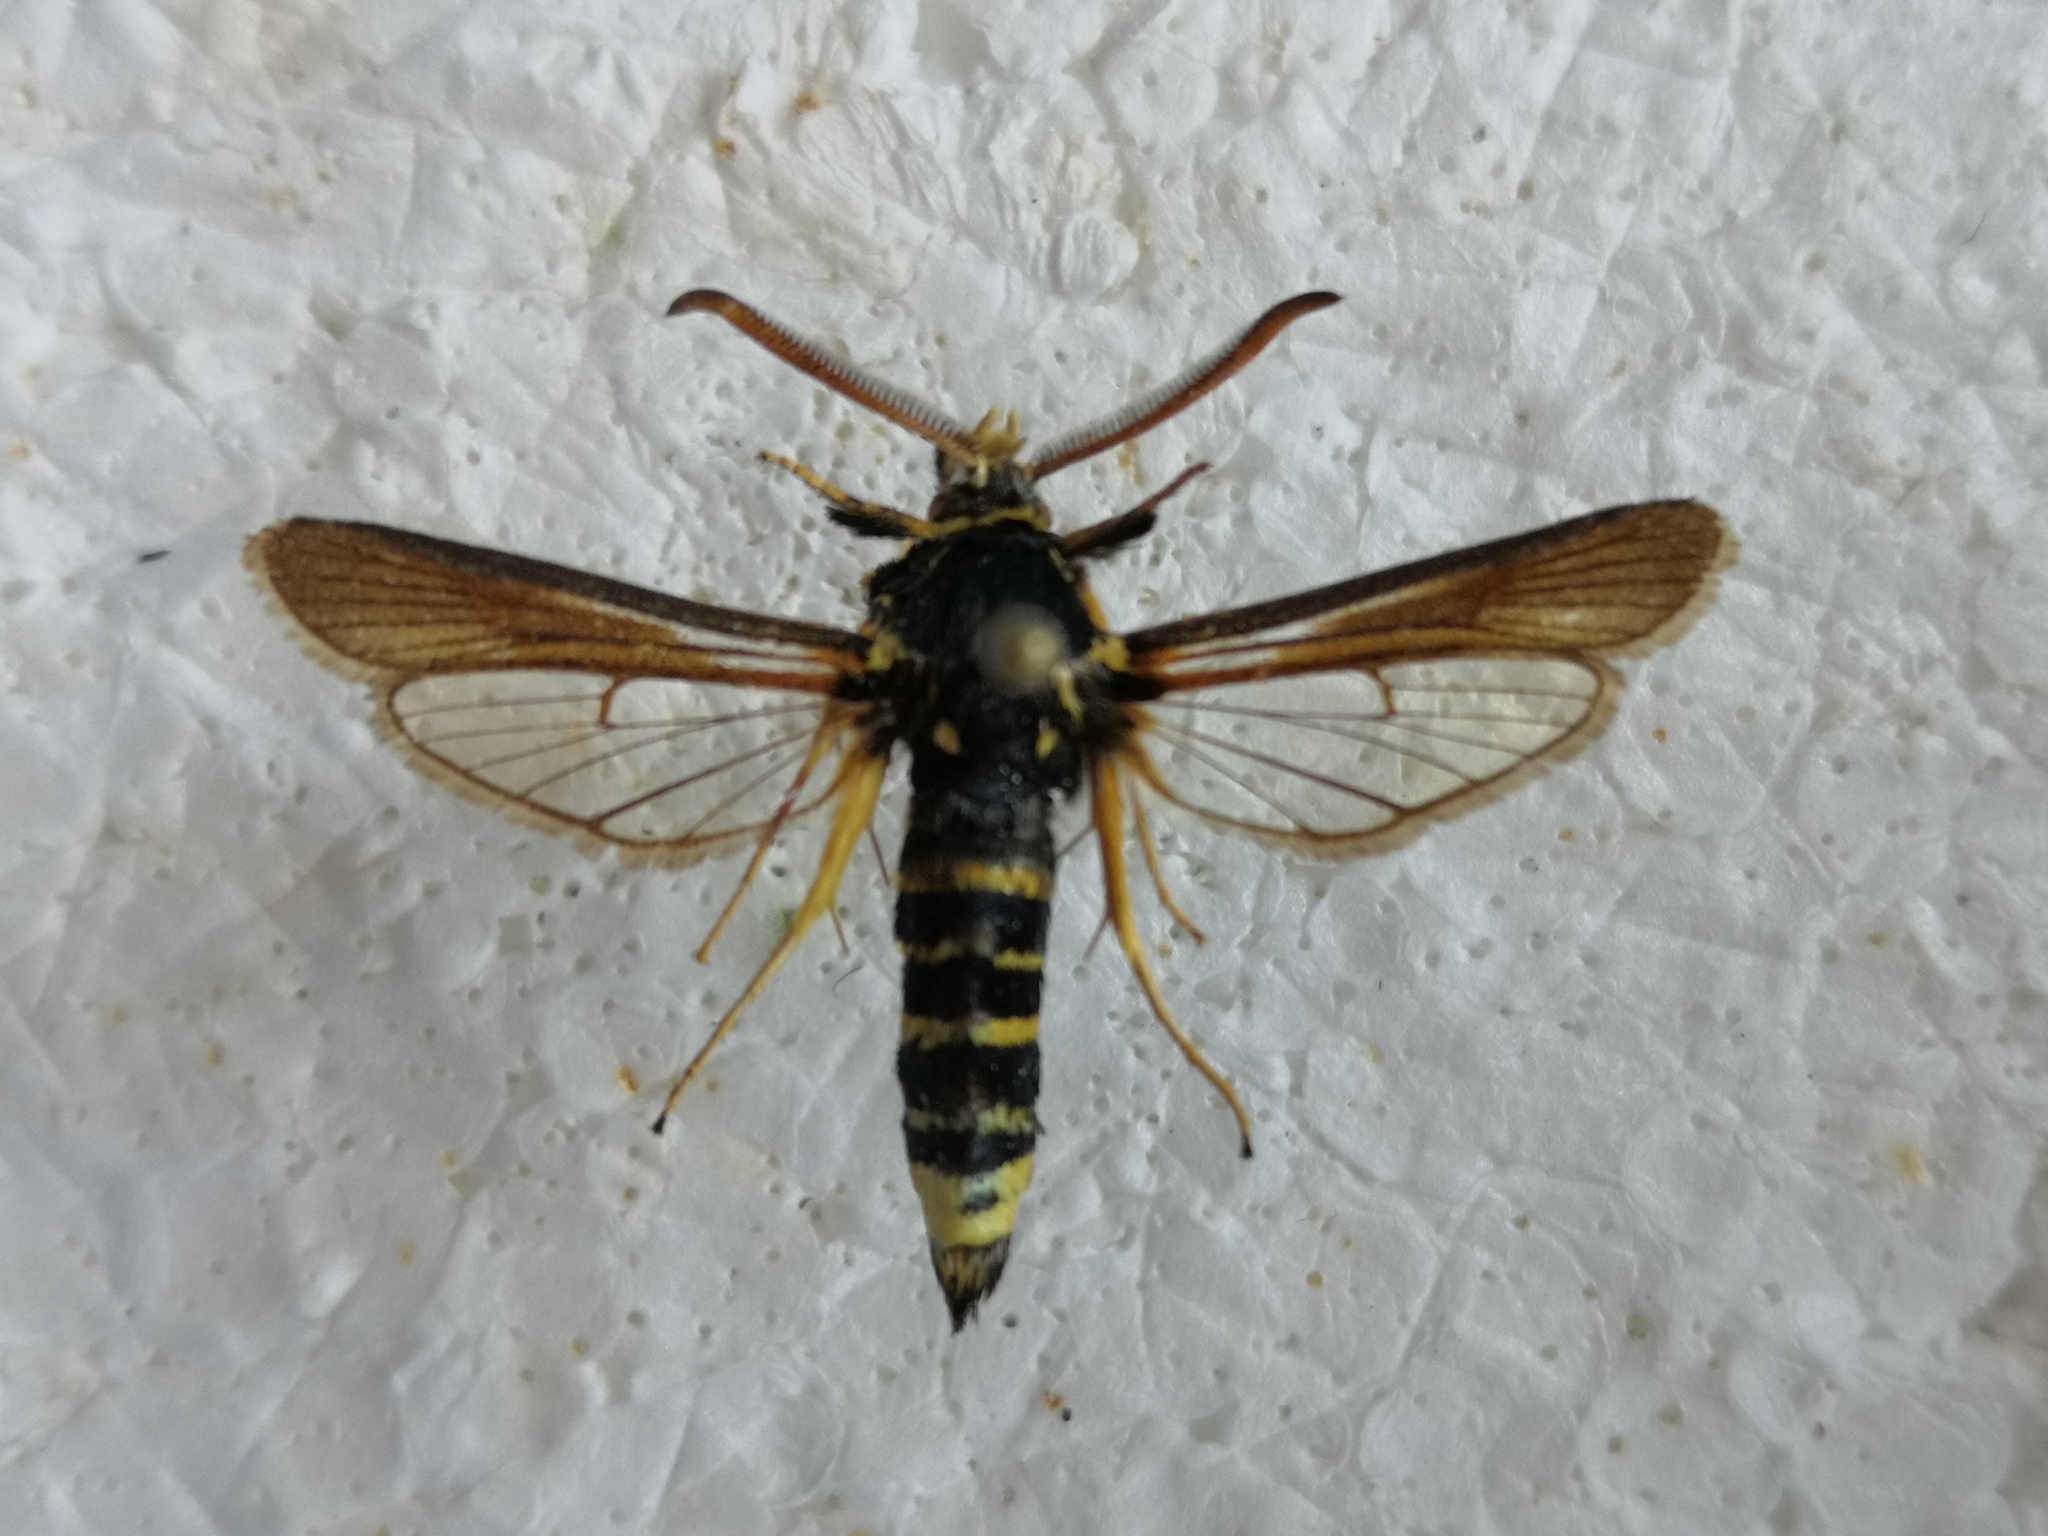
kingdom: Animalia
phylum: Arthropoda
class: Insecta
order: Lepidoptera
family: Sesiidae
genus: Paranthrene
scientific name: Paranthrene tabaniformis
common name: Dusky clearwing
